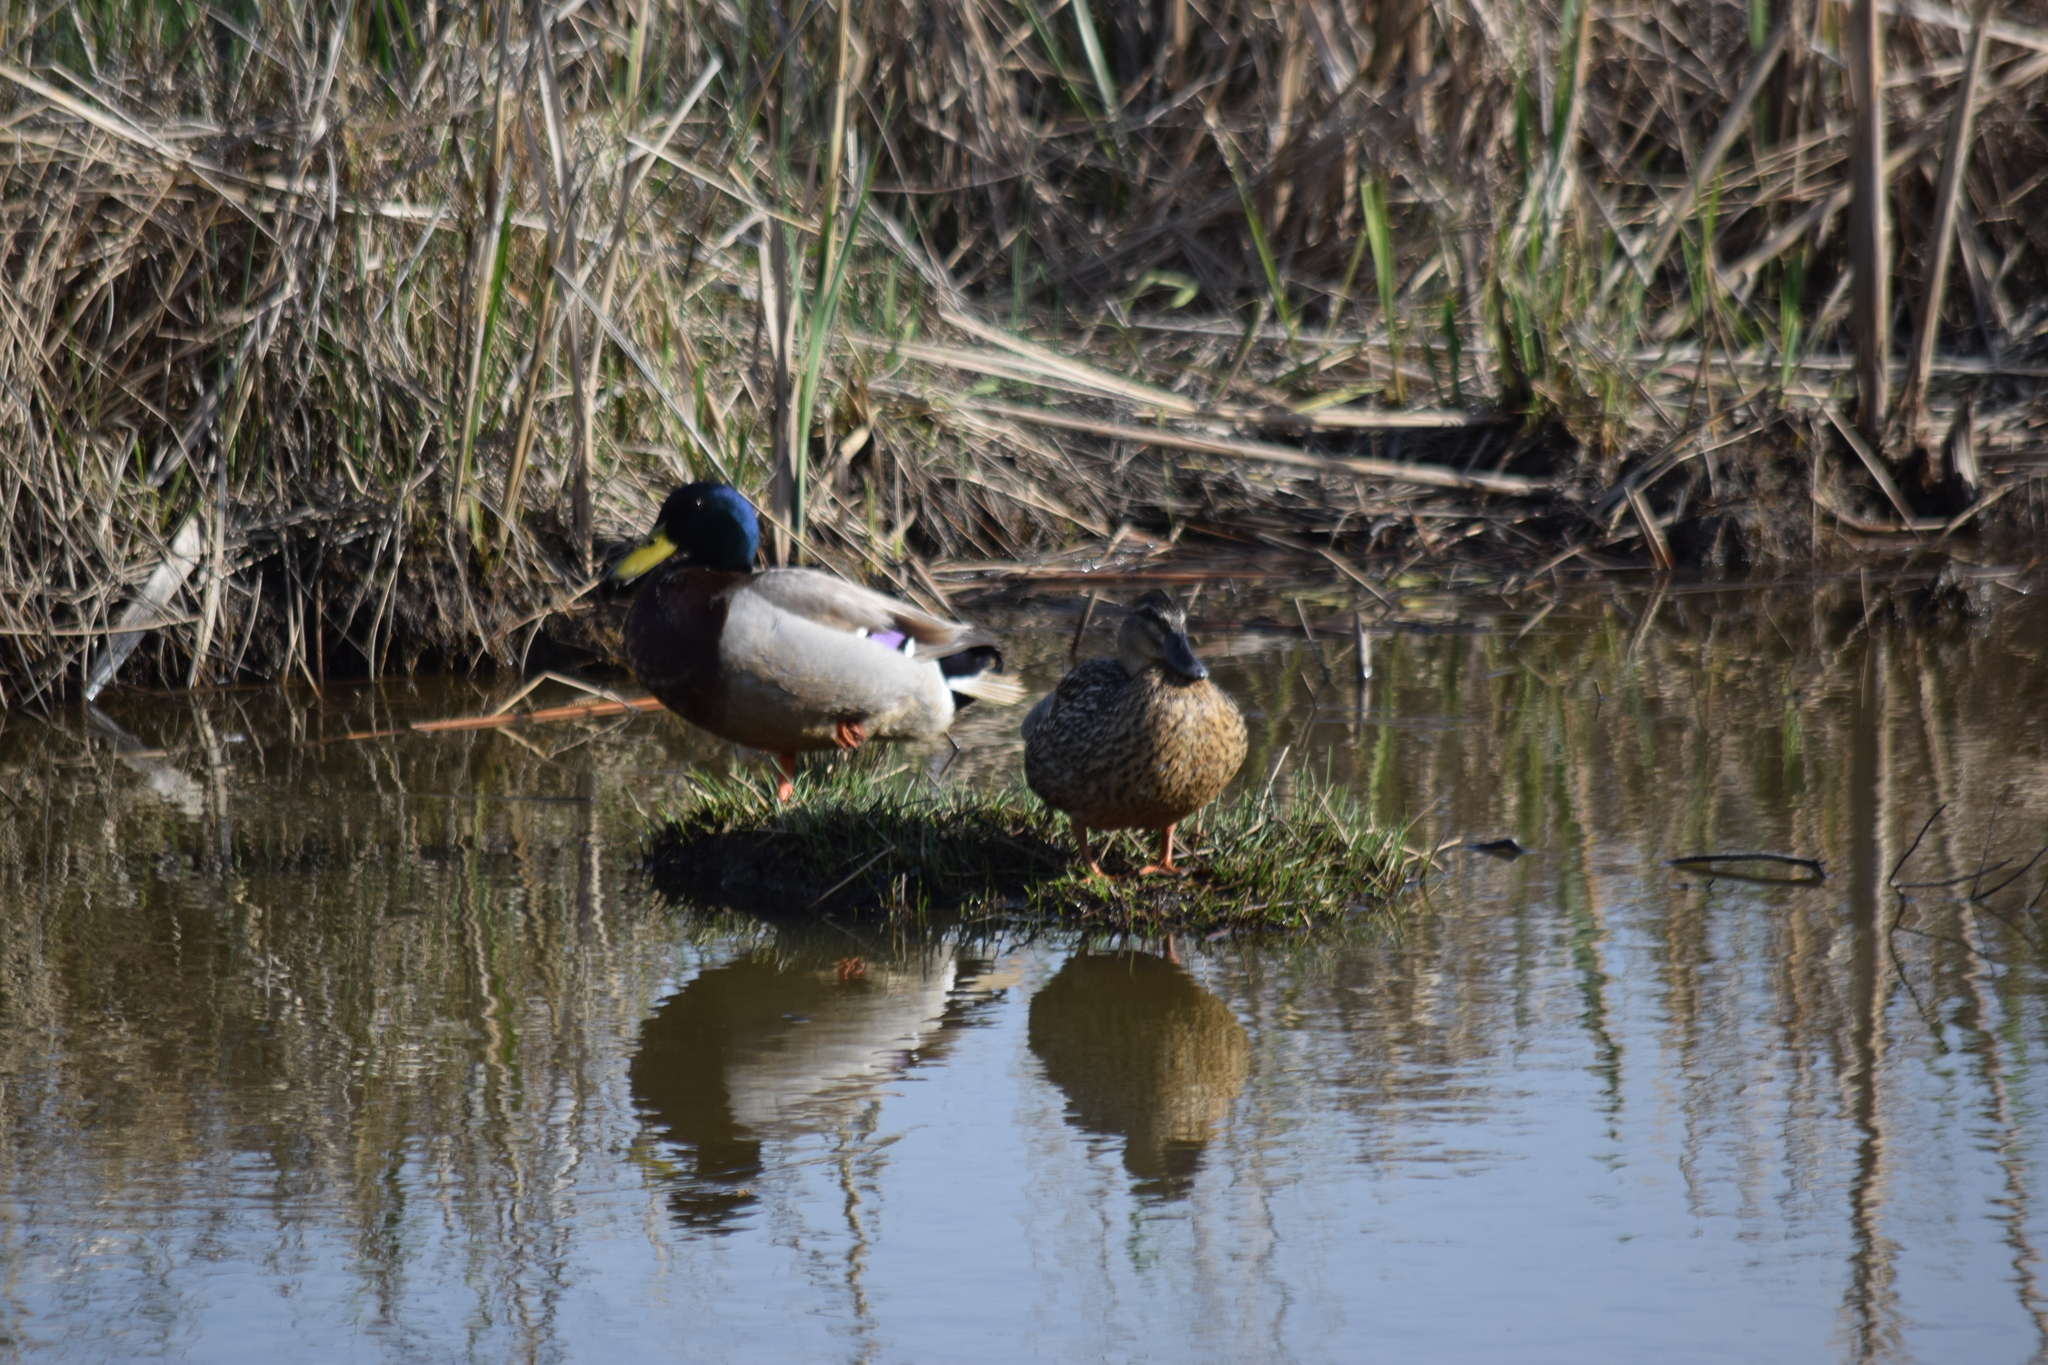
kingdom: Animalia
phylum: Chordata
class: Aves
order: Anseriformes
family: Anatidae
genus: Anas
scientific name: Anas platyrhynchos
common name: Mallard
